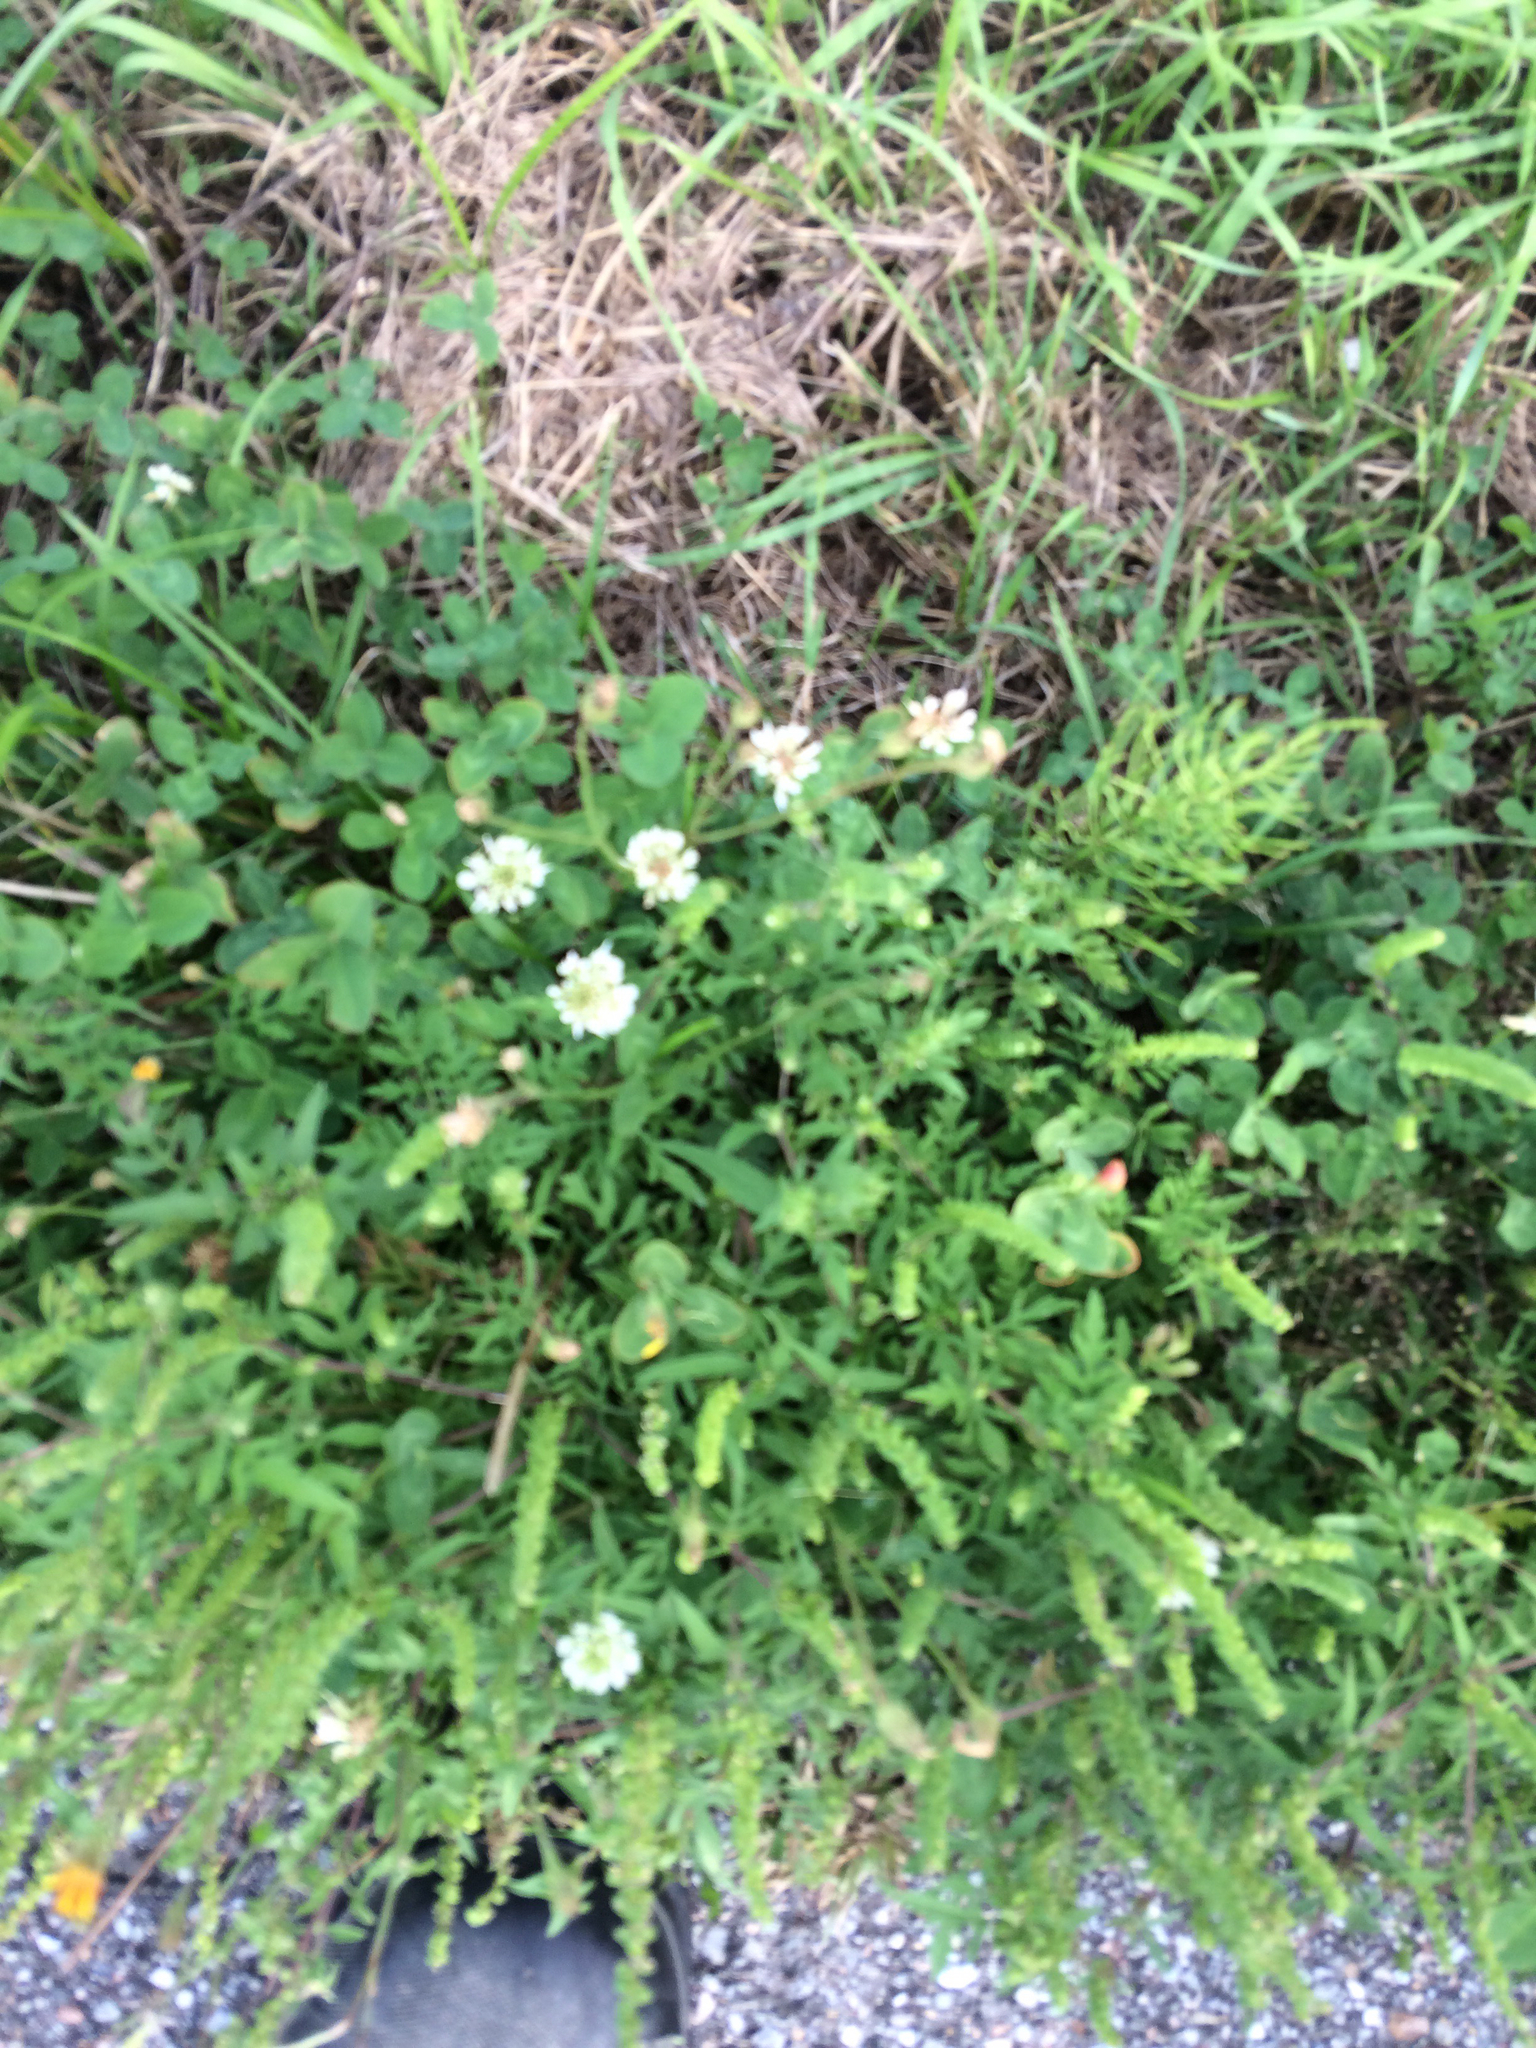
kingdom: Plantae
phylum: Tracheophyta
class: Magnoliopsida
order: Fabales
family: Fabaceae
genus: Trifolium
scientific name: Trifolium repens
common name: White clover
